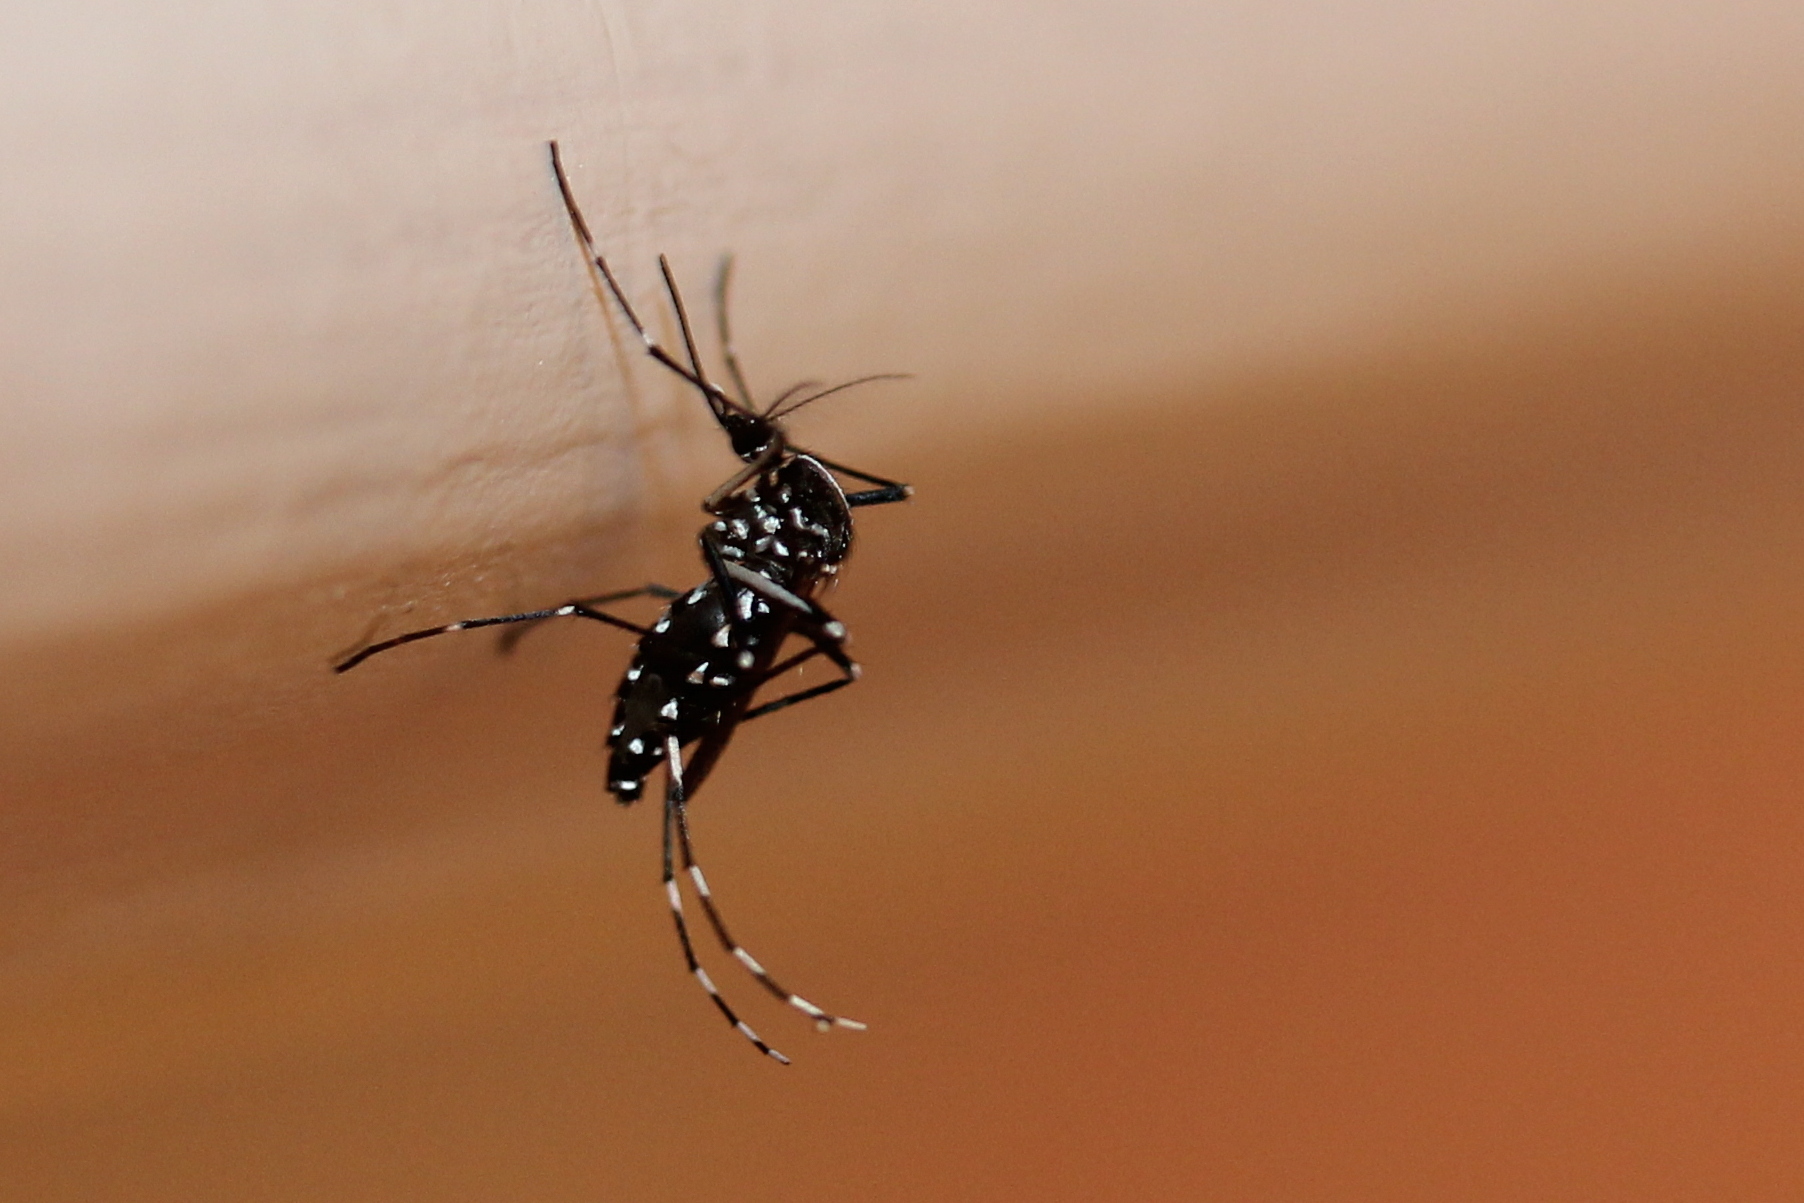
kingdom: Animalia
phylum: Arthropoda
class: Insecta
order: Diptera
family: Culicidae
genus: Aedes
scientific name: Aedes albopictus
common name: Tiger mosquito
